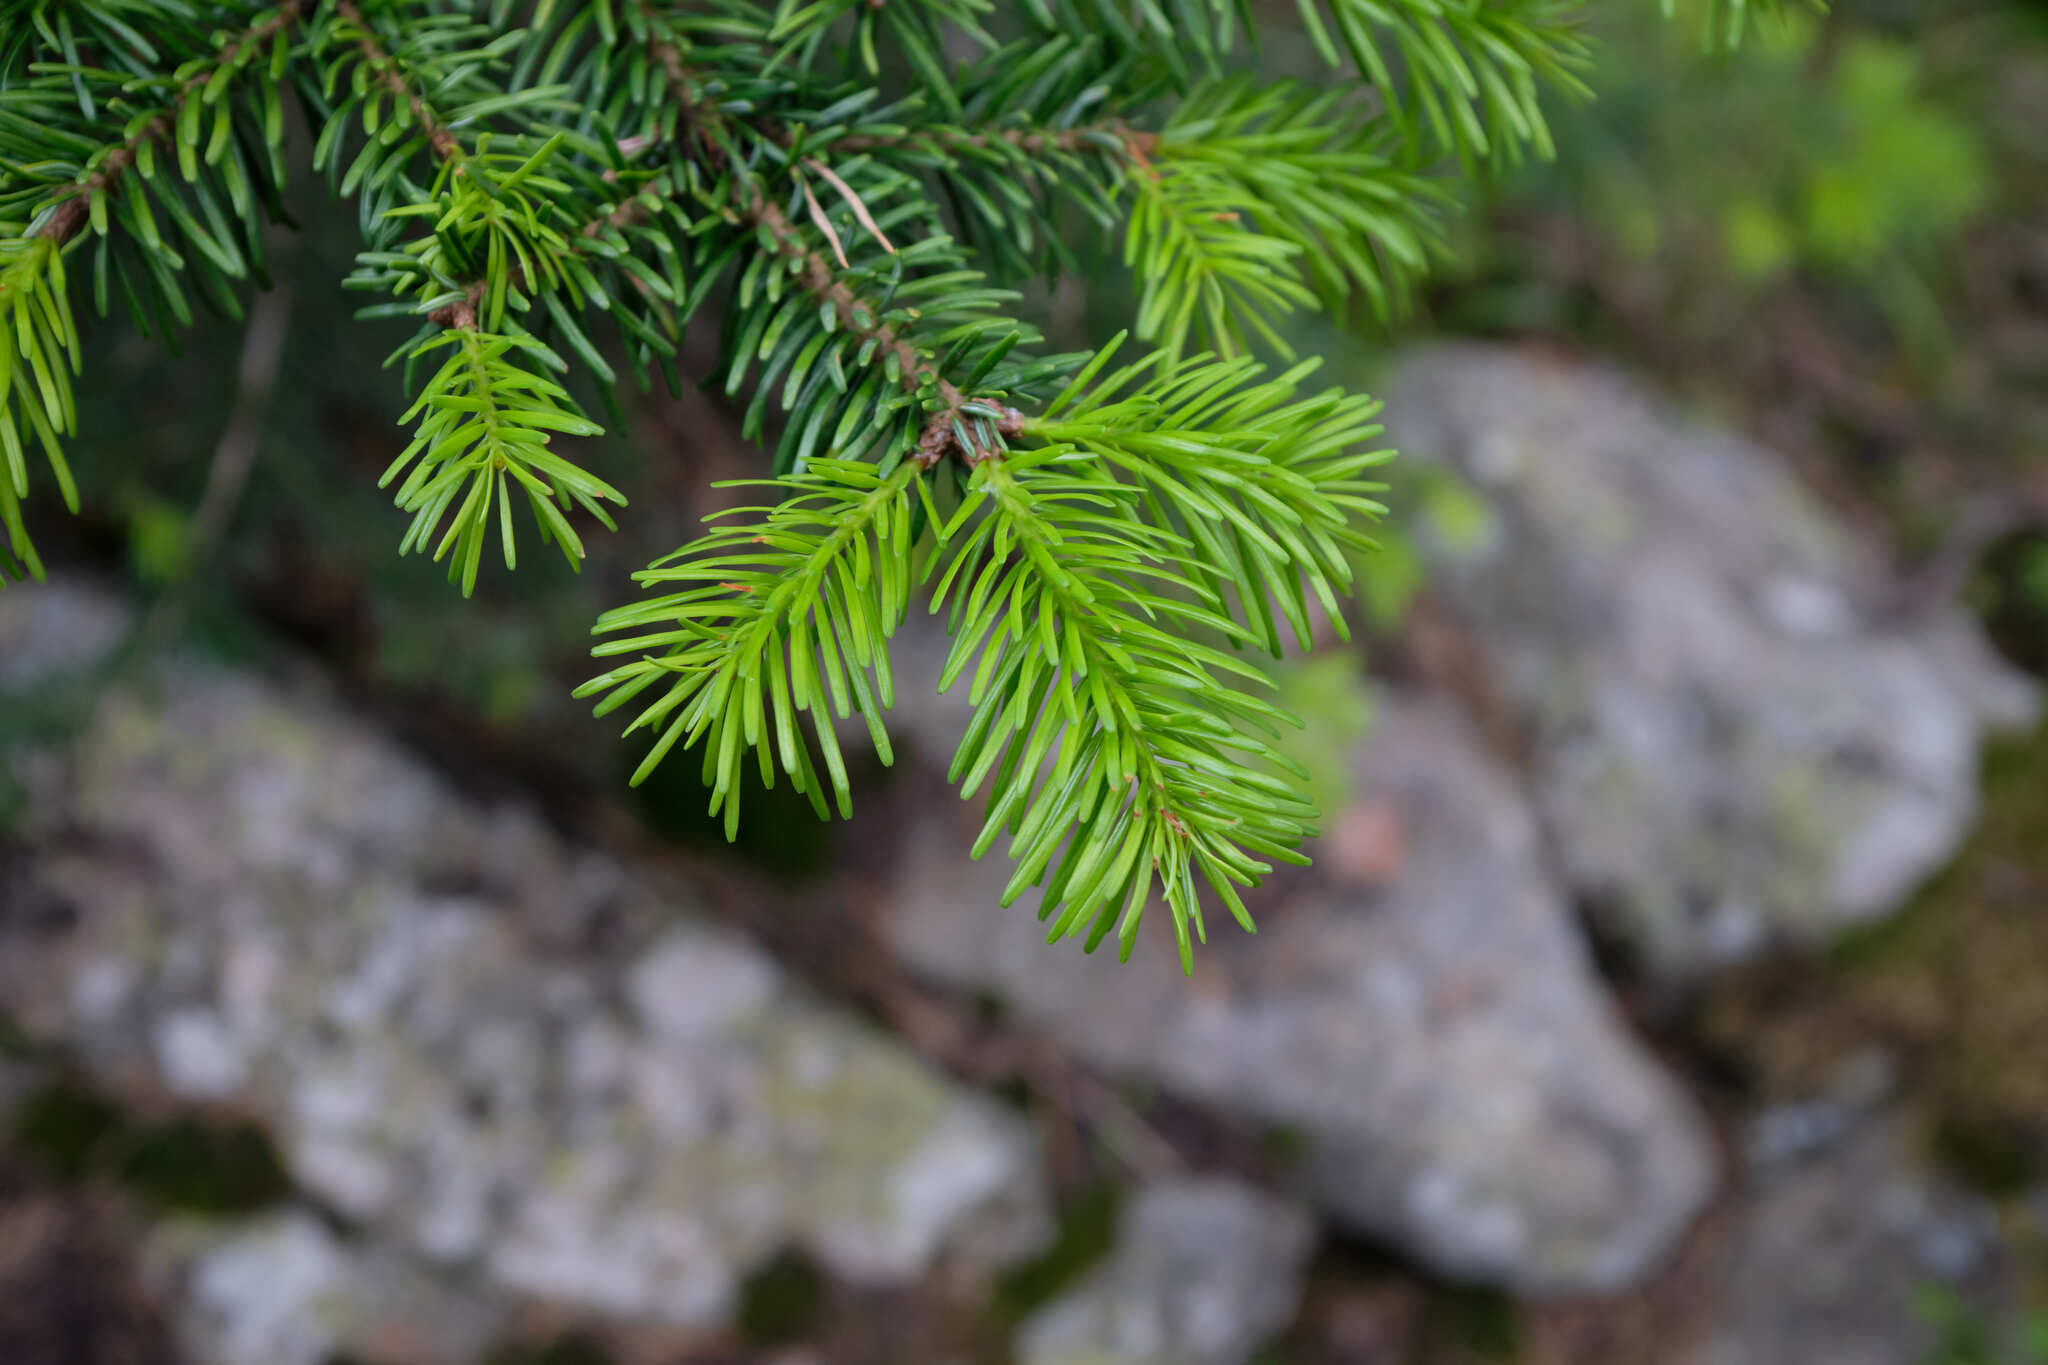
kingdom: Plantae
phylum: Tracheophyta
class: Pinopsida
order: Pinales
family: Pinaceae
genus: Abies
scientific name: Abies nordmanniana
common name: Caucasian fir
